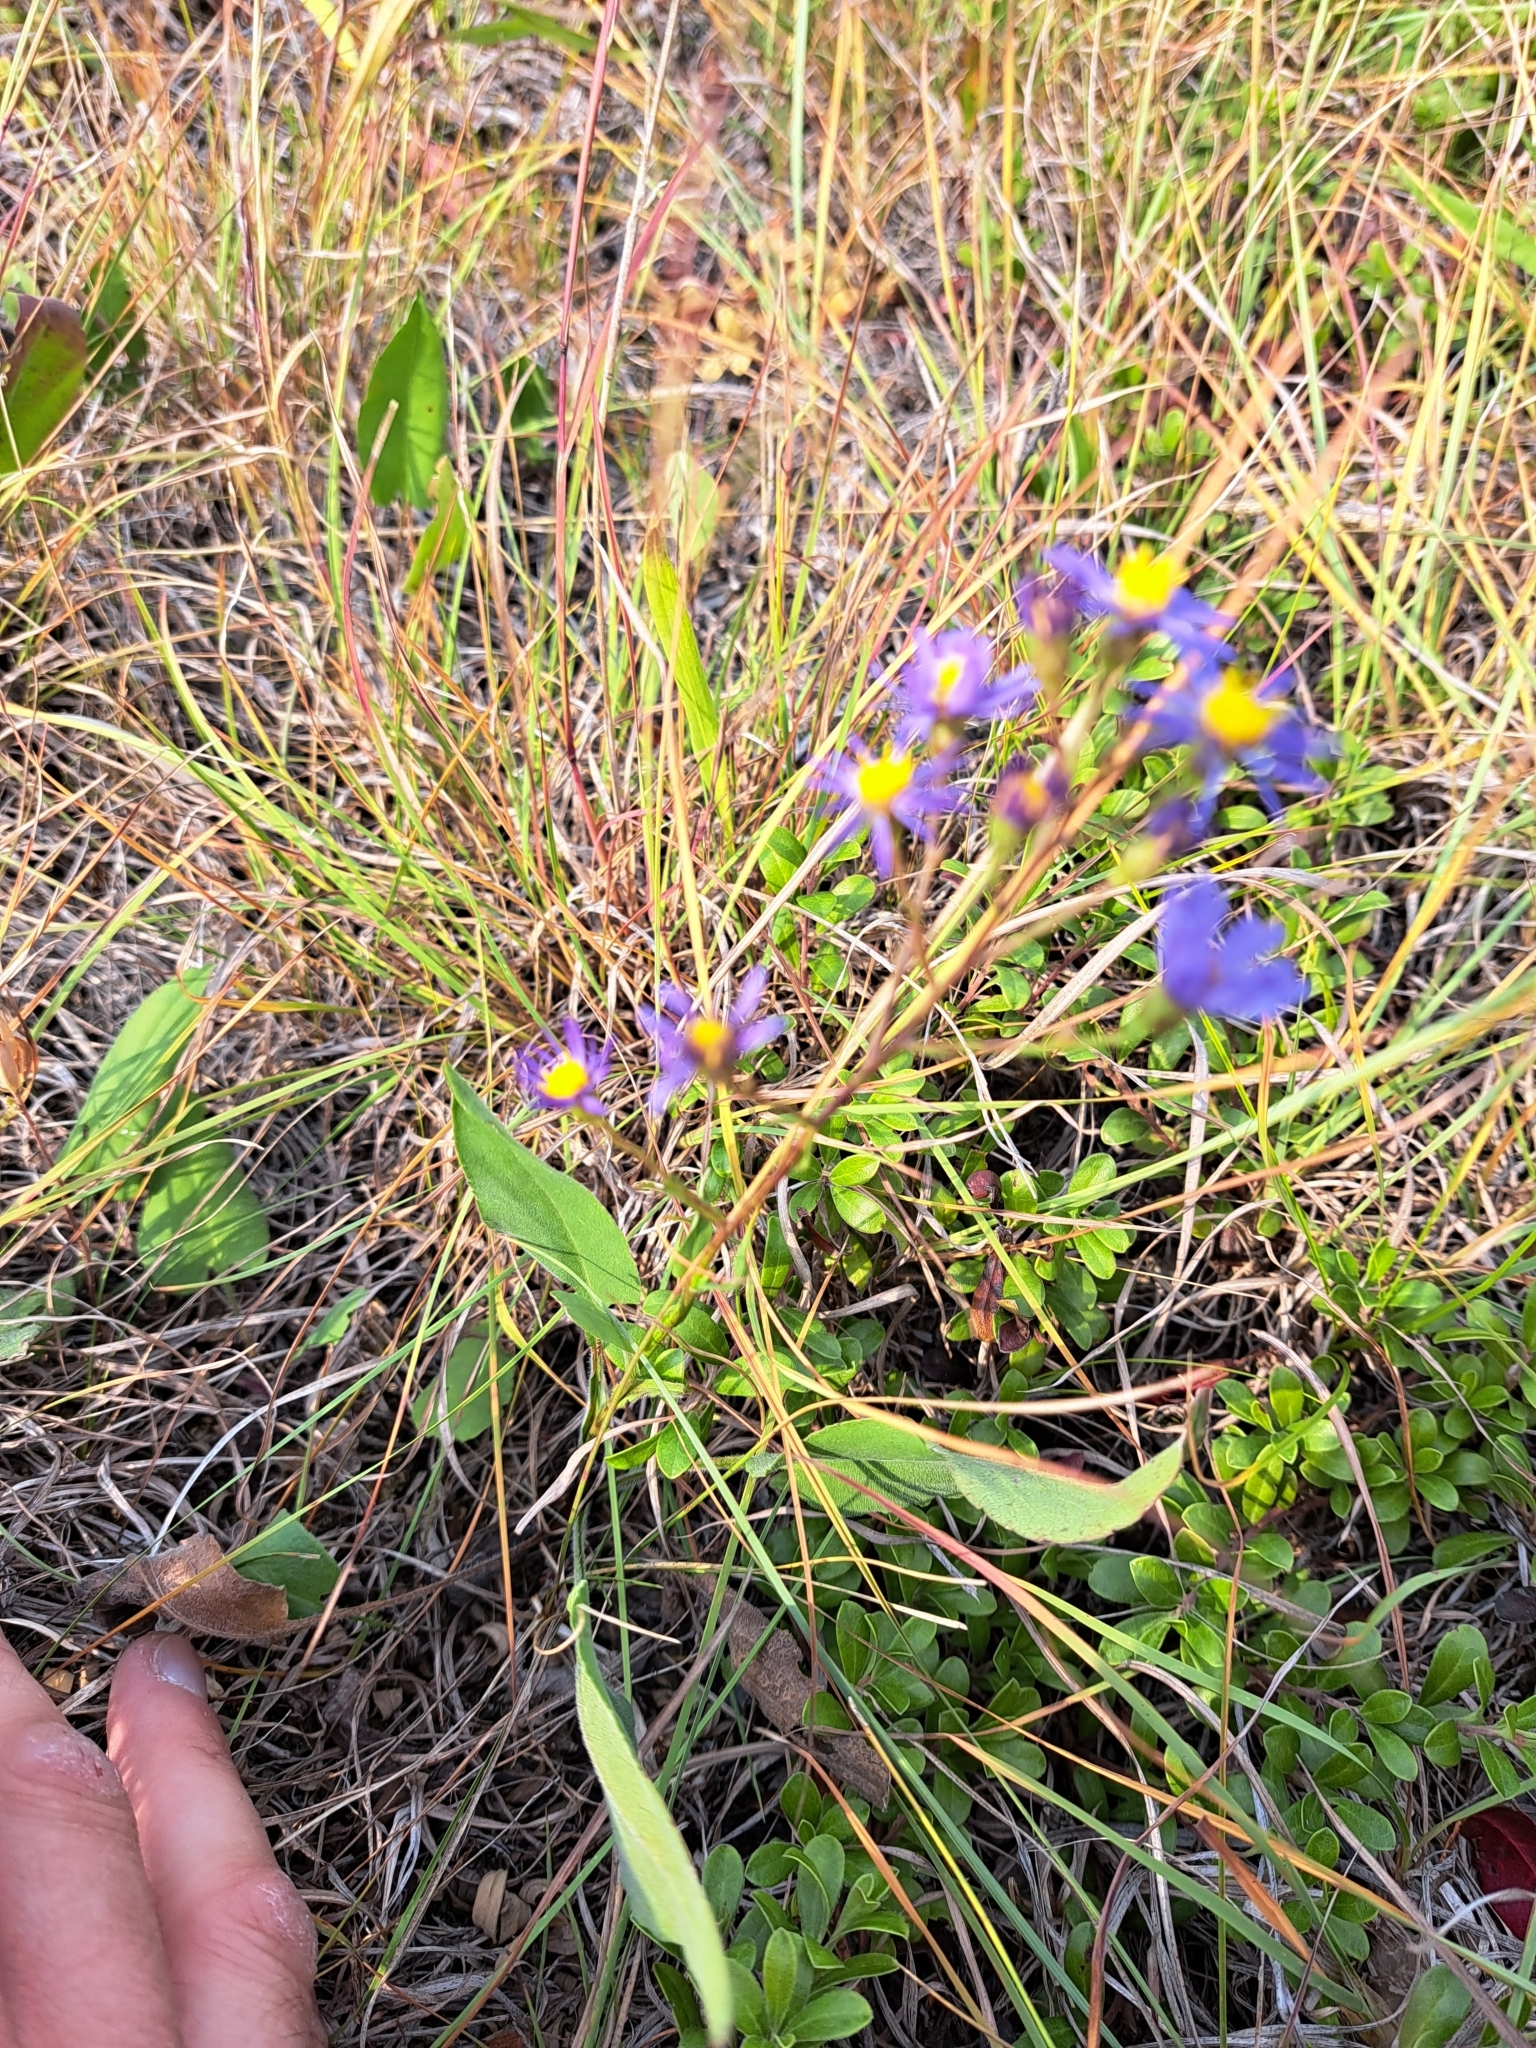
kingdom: Plantae
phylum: Tracheophyta
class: Magnoliopsida
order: Asterales
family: Asteraceae
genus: Symphyotrichum
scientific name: Symphyotrichum oolentangiense
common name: Azure aster
